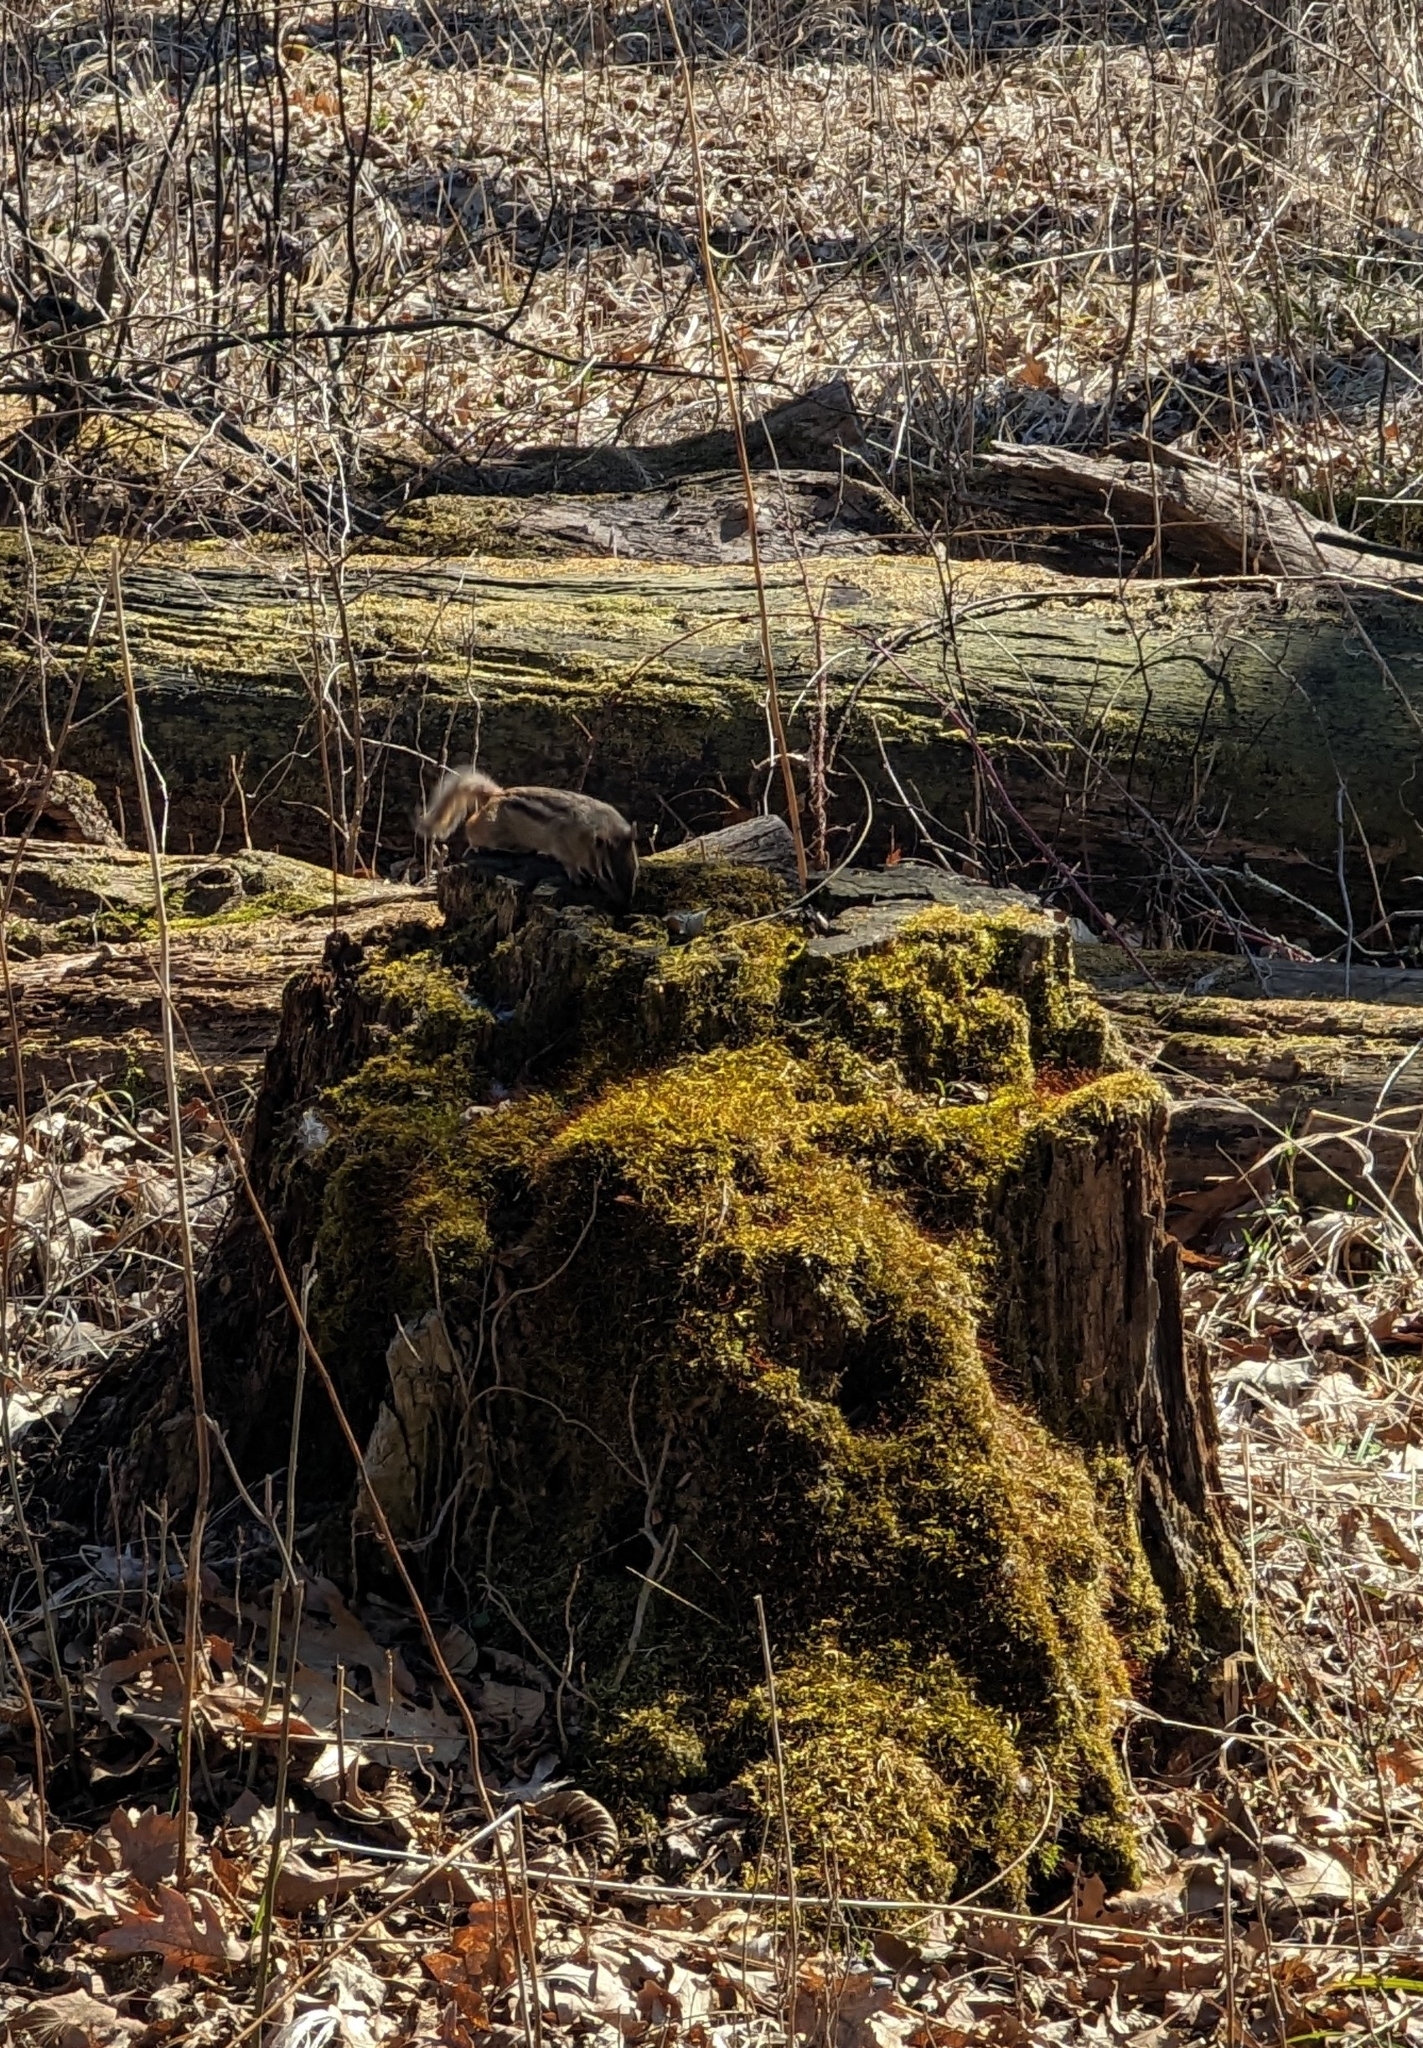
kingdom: Animalia
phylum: Chordata
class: Mammalia
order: Rodentia
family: Sciuridae
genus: Tamias
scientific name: Tamias striatus
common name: Eastern chipmunk
